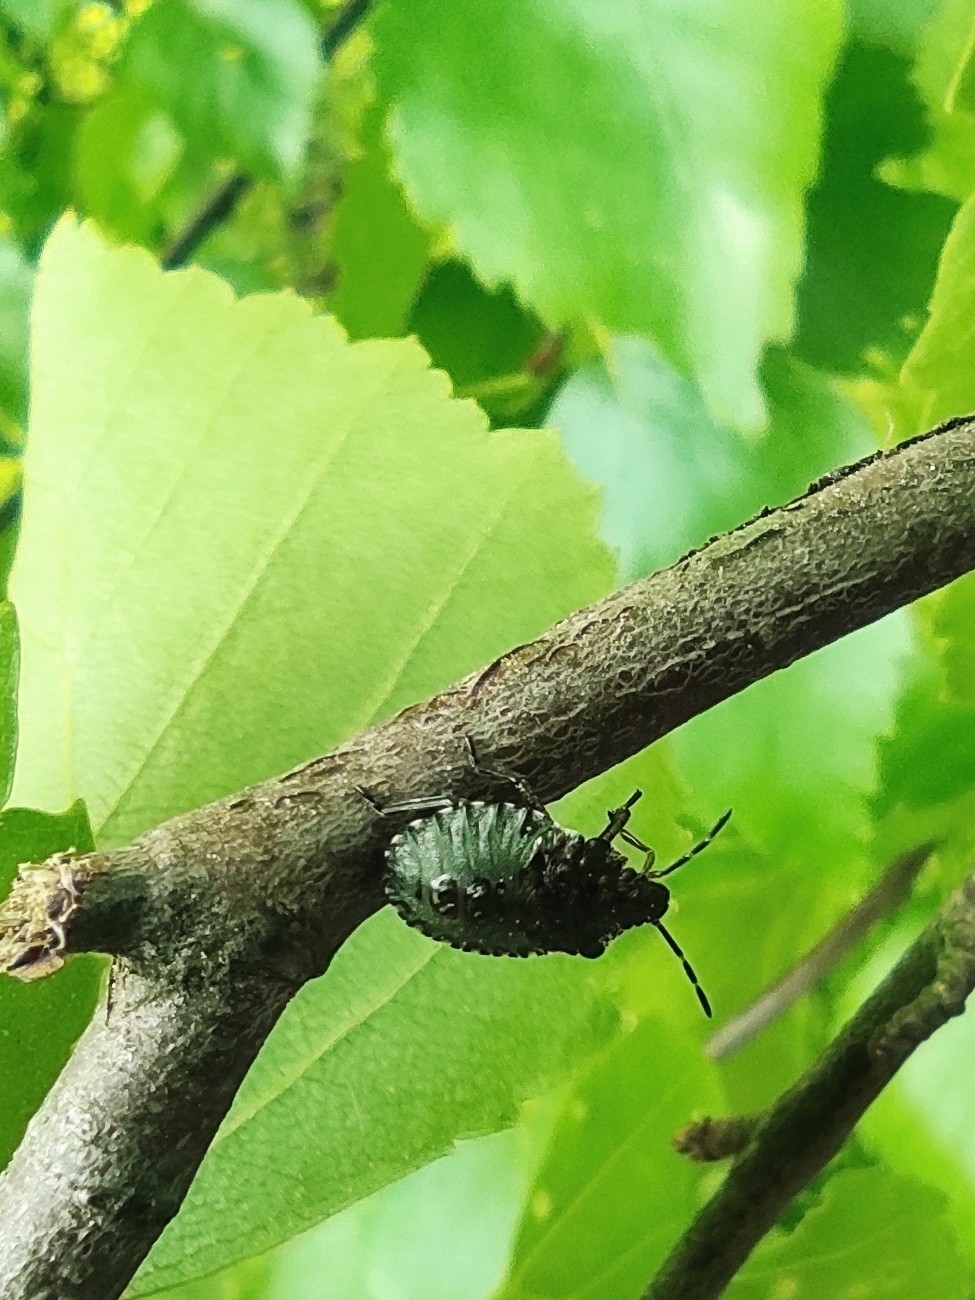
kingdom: Animalia
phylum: Arthropoda
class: Insecta
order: Hemiptera
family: Pentatomidae
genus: Pentatoma
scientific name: Pentatoma rufipes
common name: Forest bug
